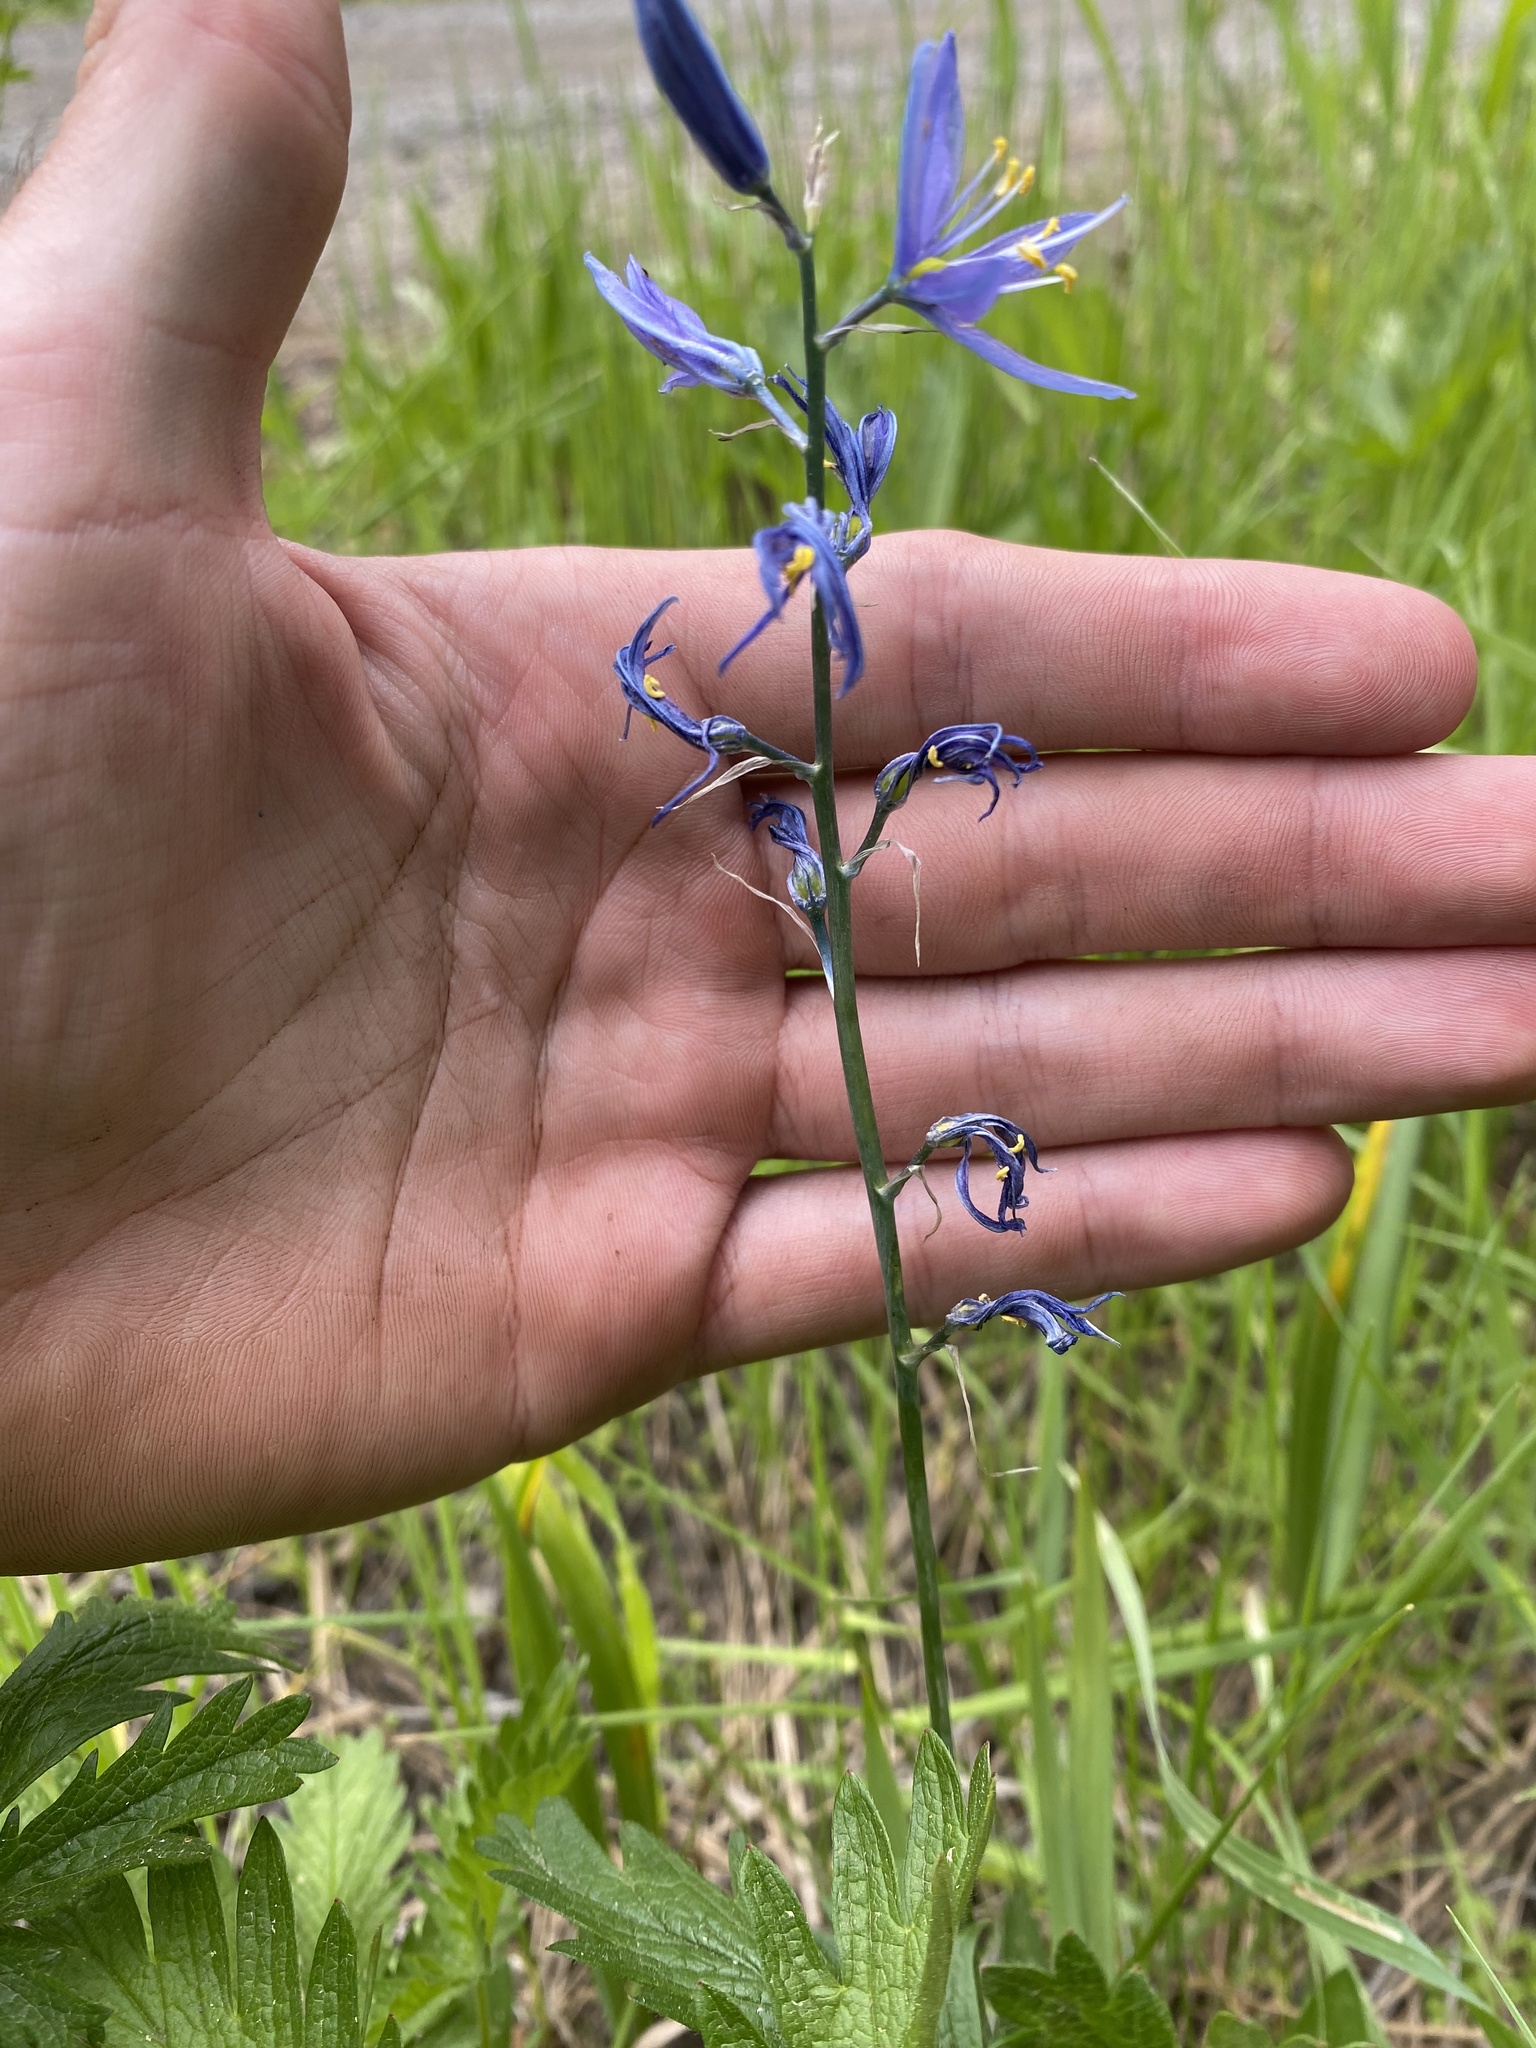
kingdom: Plantae
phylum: Tracheophyta
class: Liliopsida
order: Asparagales
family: Asparagaceae
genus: Camassia
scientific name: Camassia quamash
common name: Common camas
